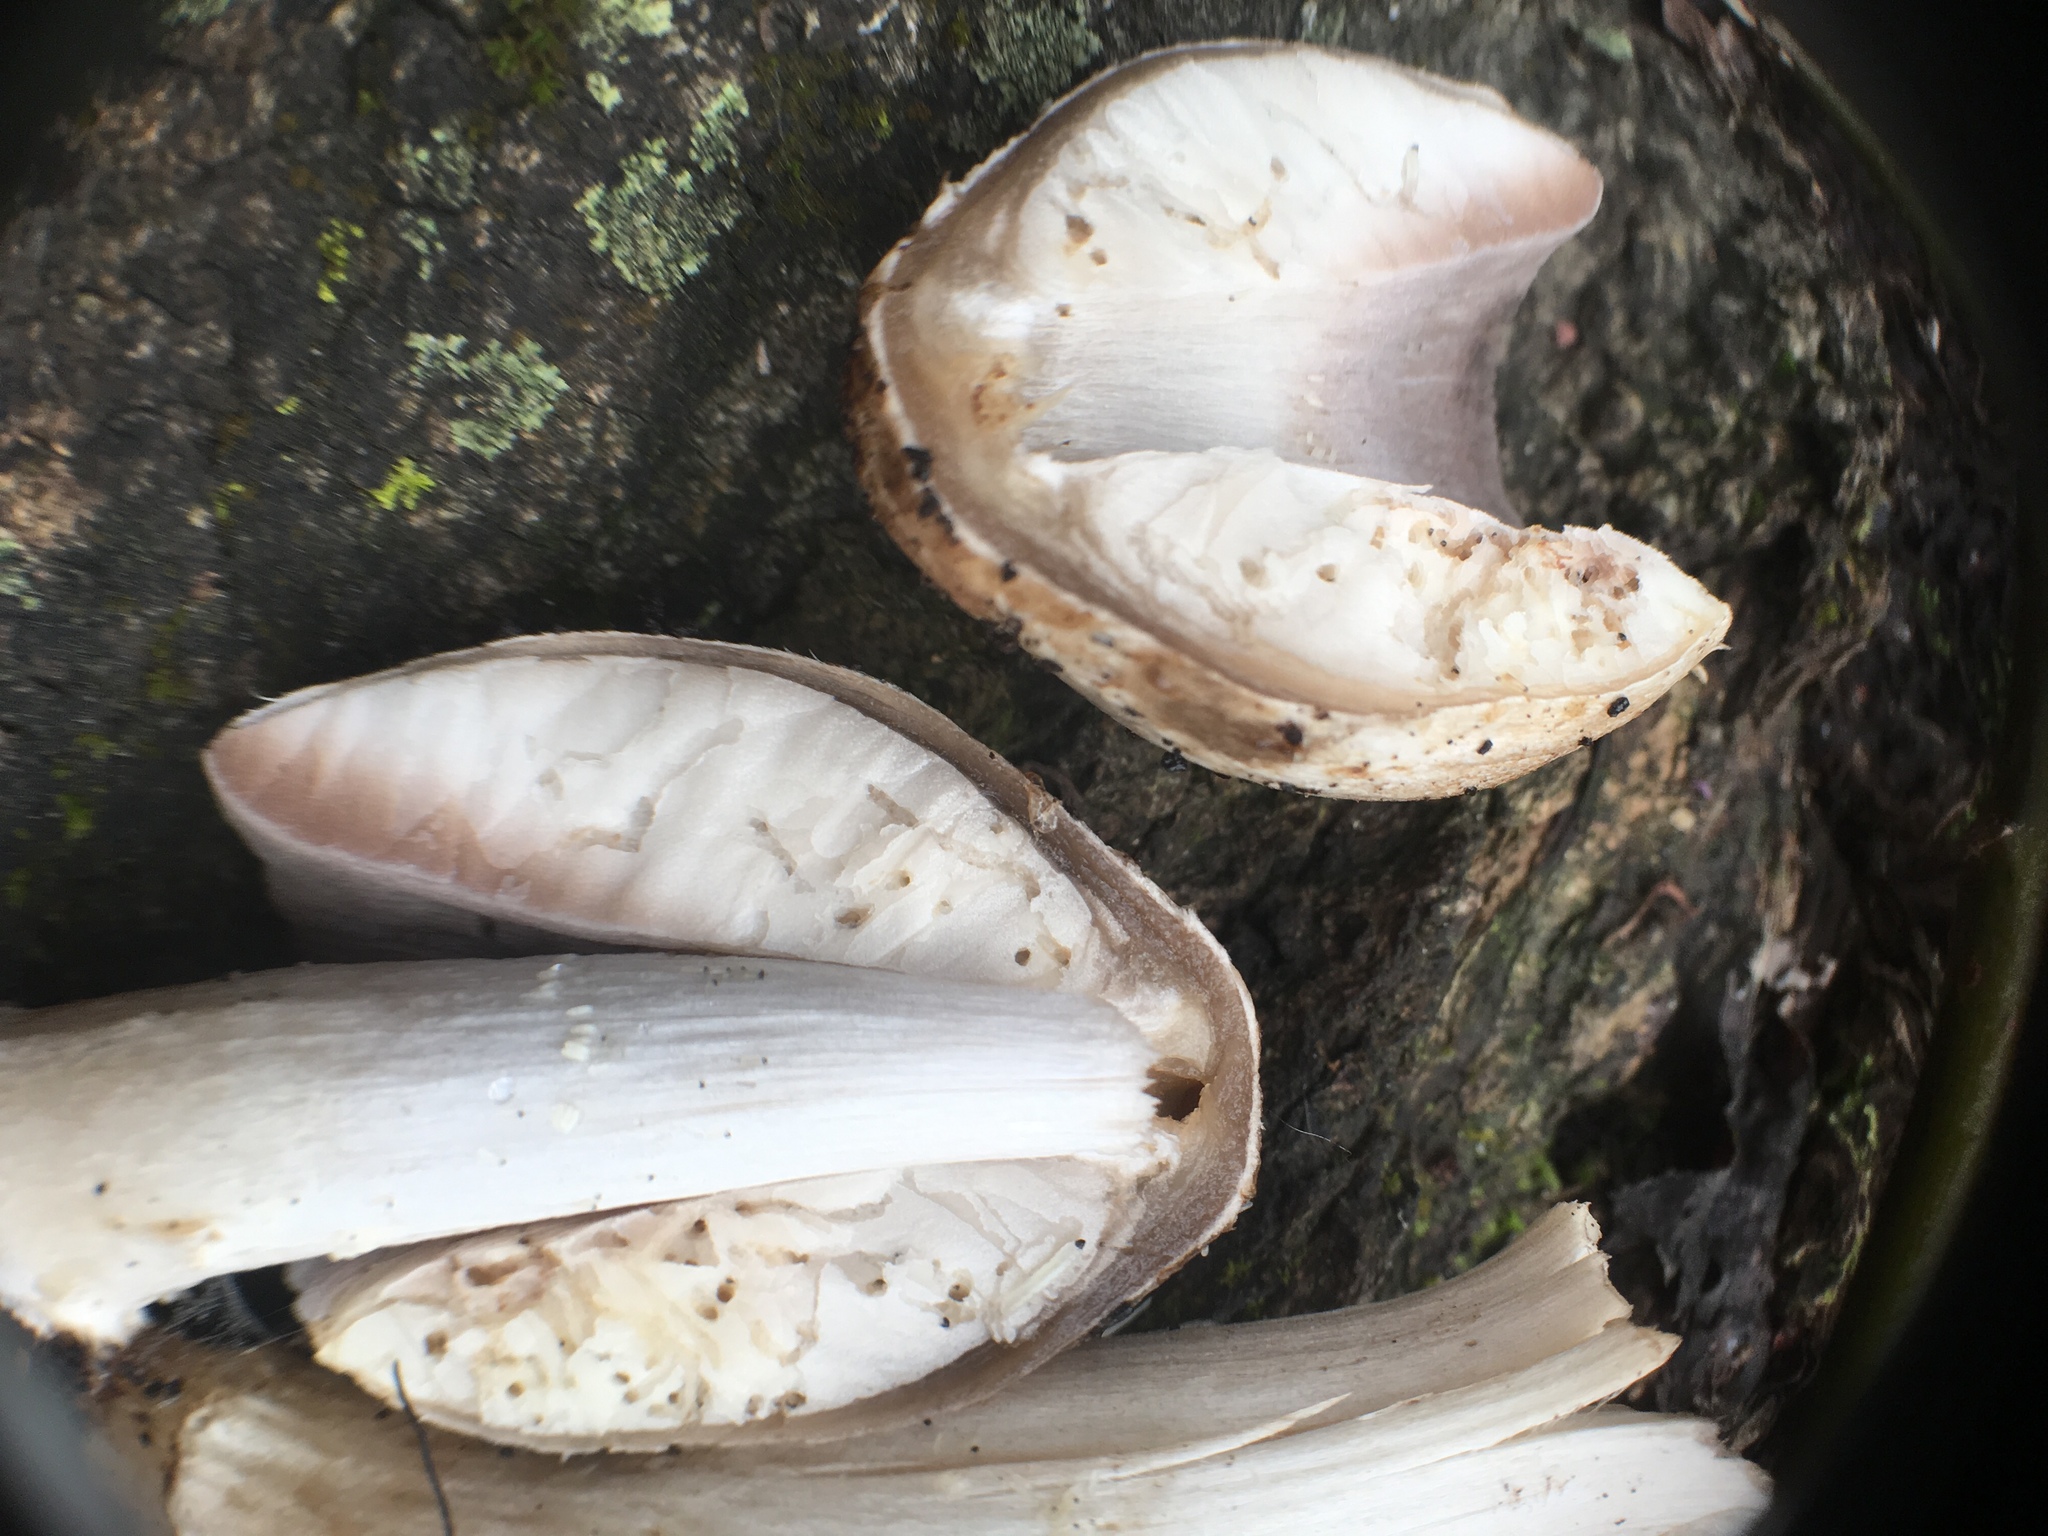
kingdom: Fungi
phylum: Basidiomycota
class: Agaricomycetes
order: Agaricales
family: Psathyrellaceae
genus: Coprinopsis
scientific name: Coprinopsis atramentaria
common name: Common ink-cap
